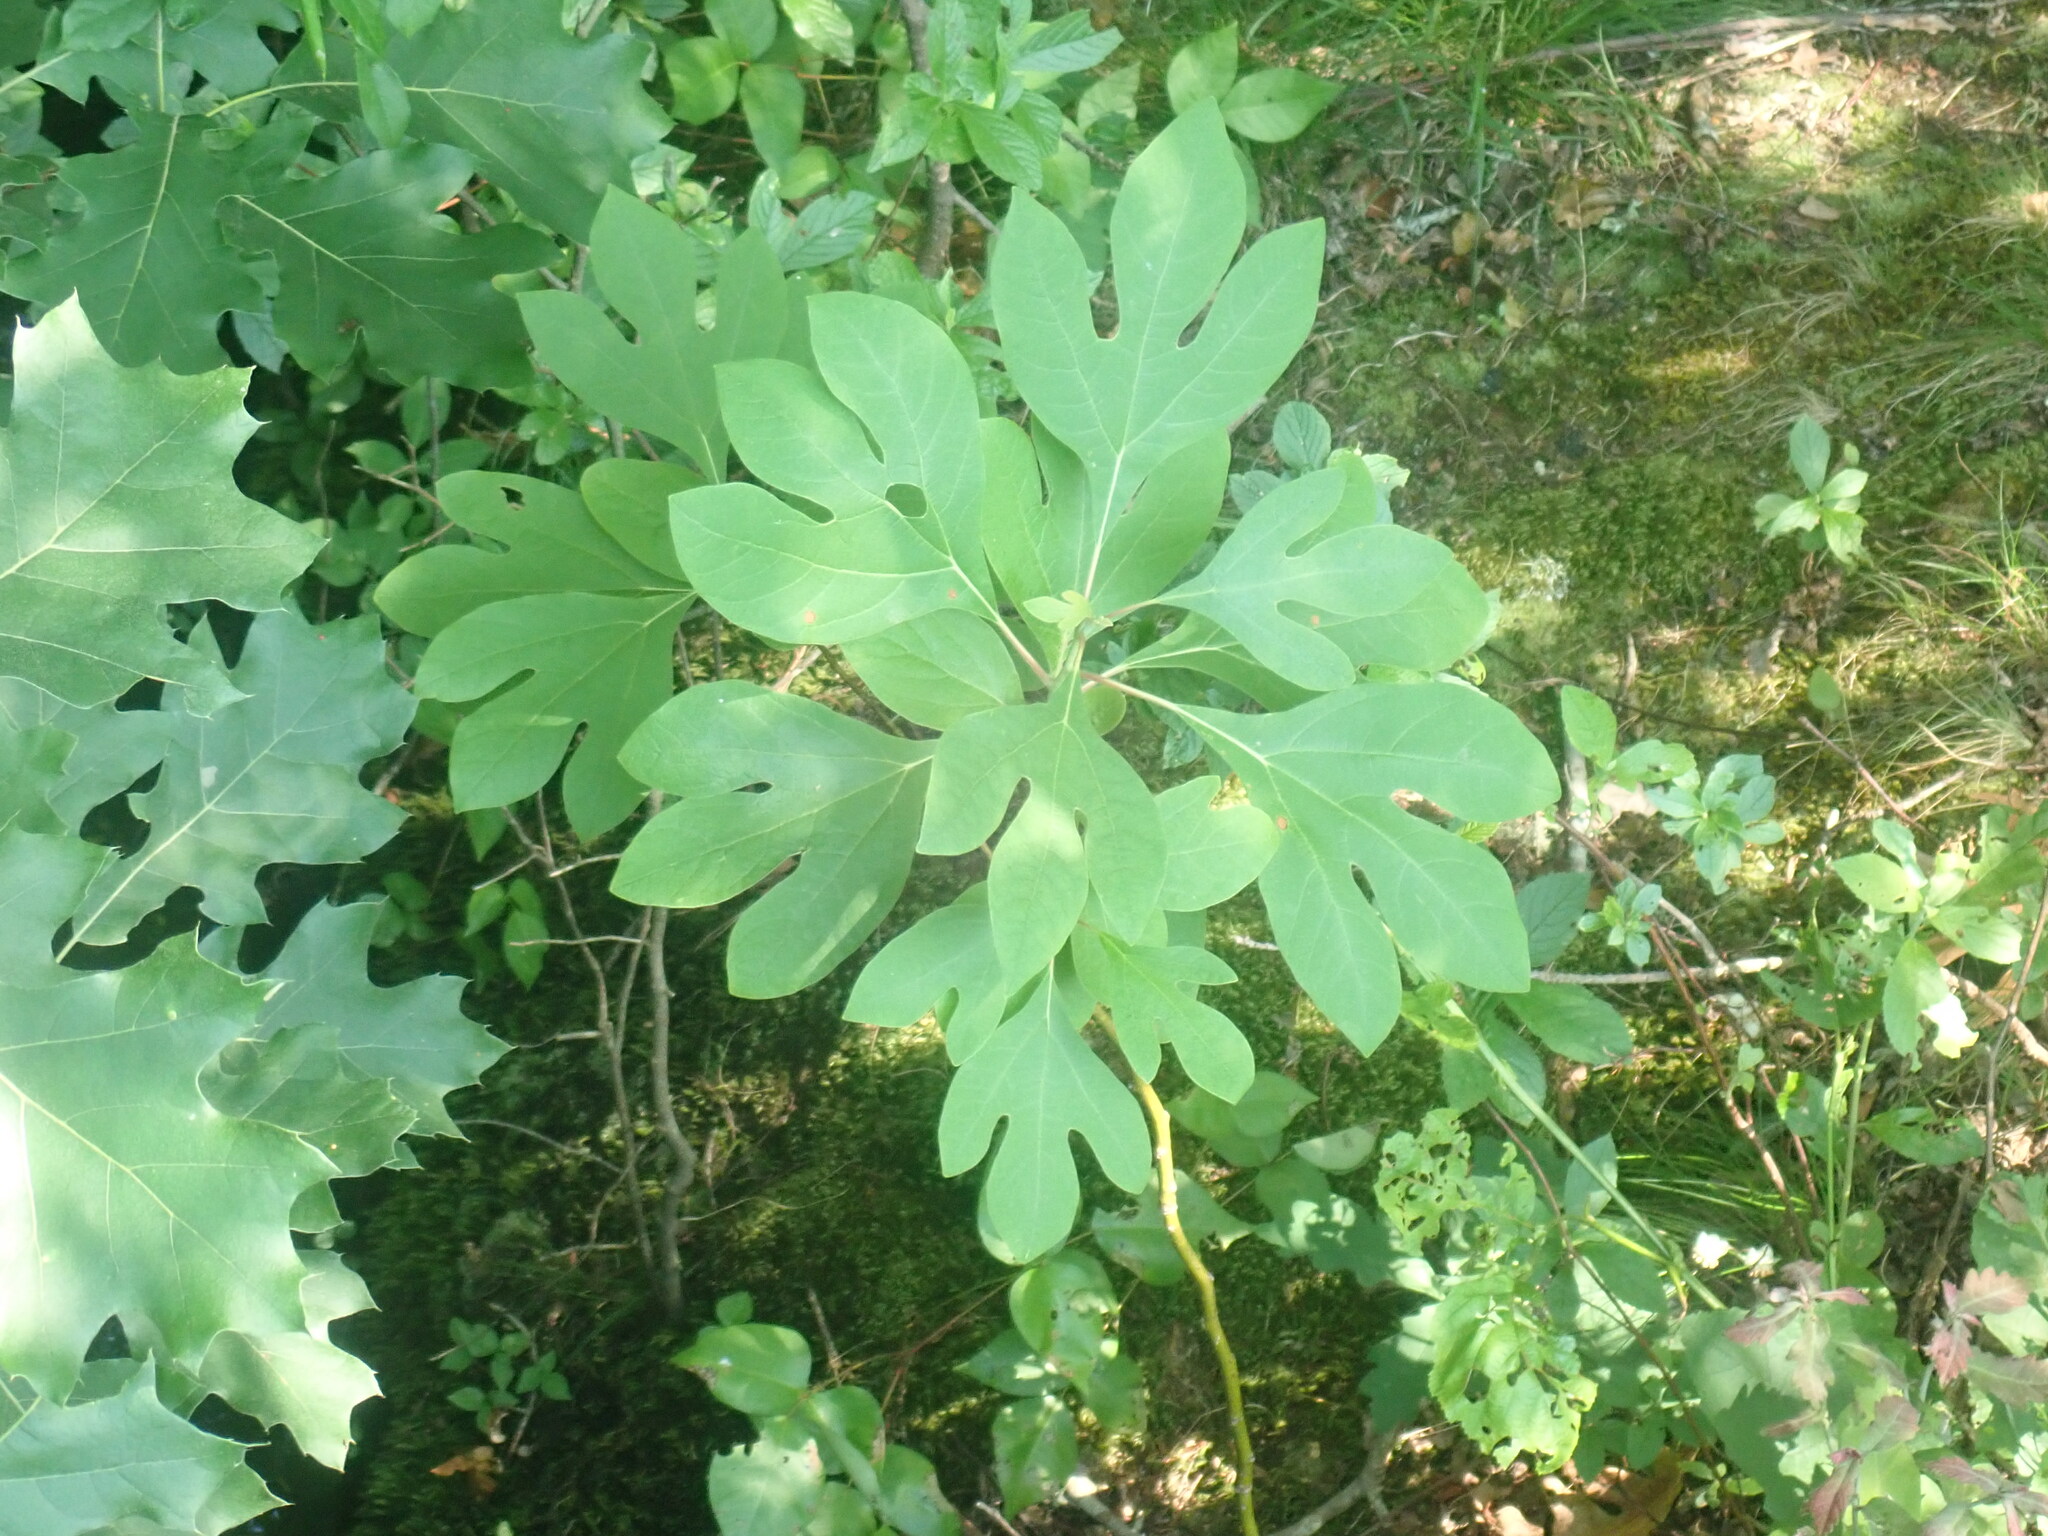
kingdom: Plantae
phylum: Tracheophyta
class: Magnoliopsida
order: Laurales
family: Lauraceae
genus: Sassafras
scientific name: Sassafras albidum
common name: Sassafras
